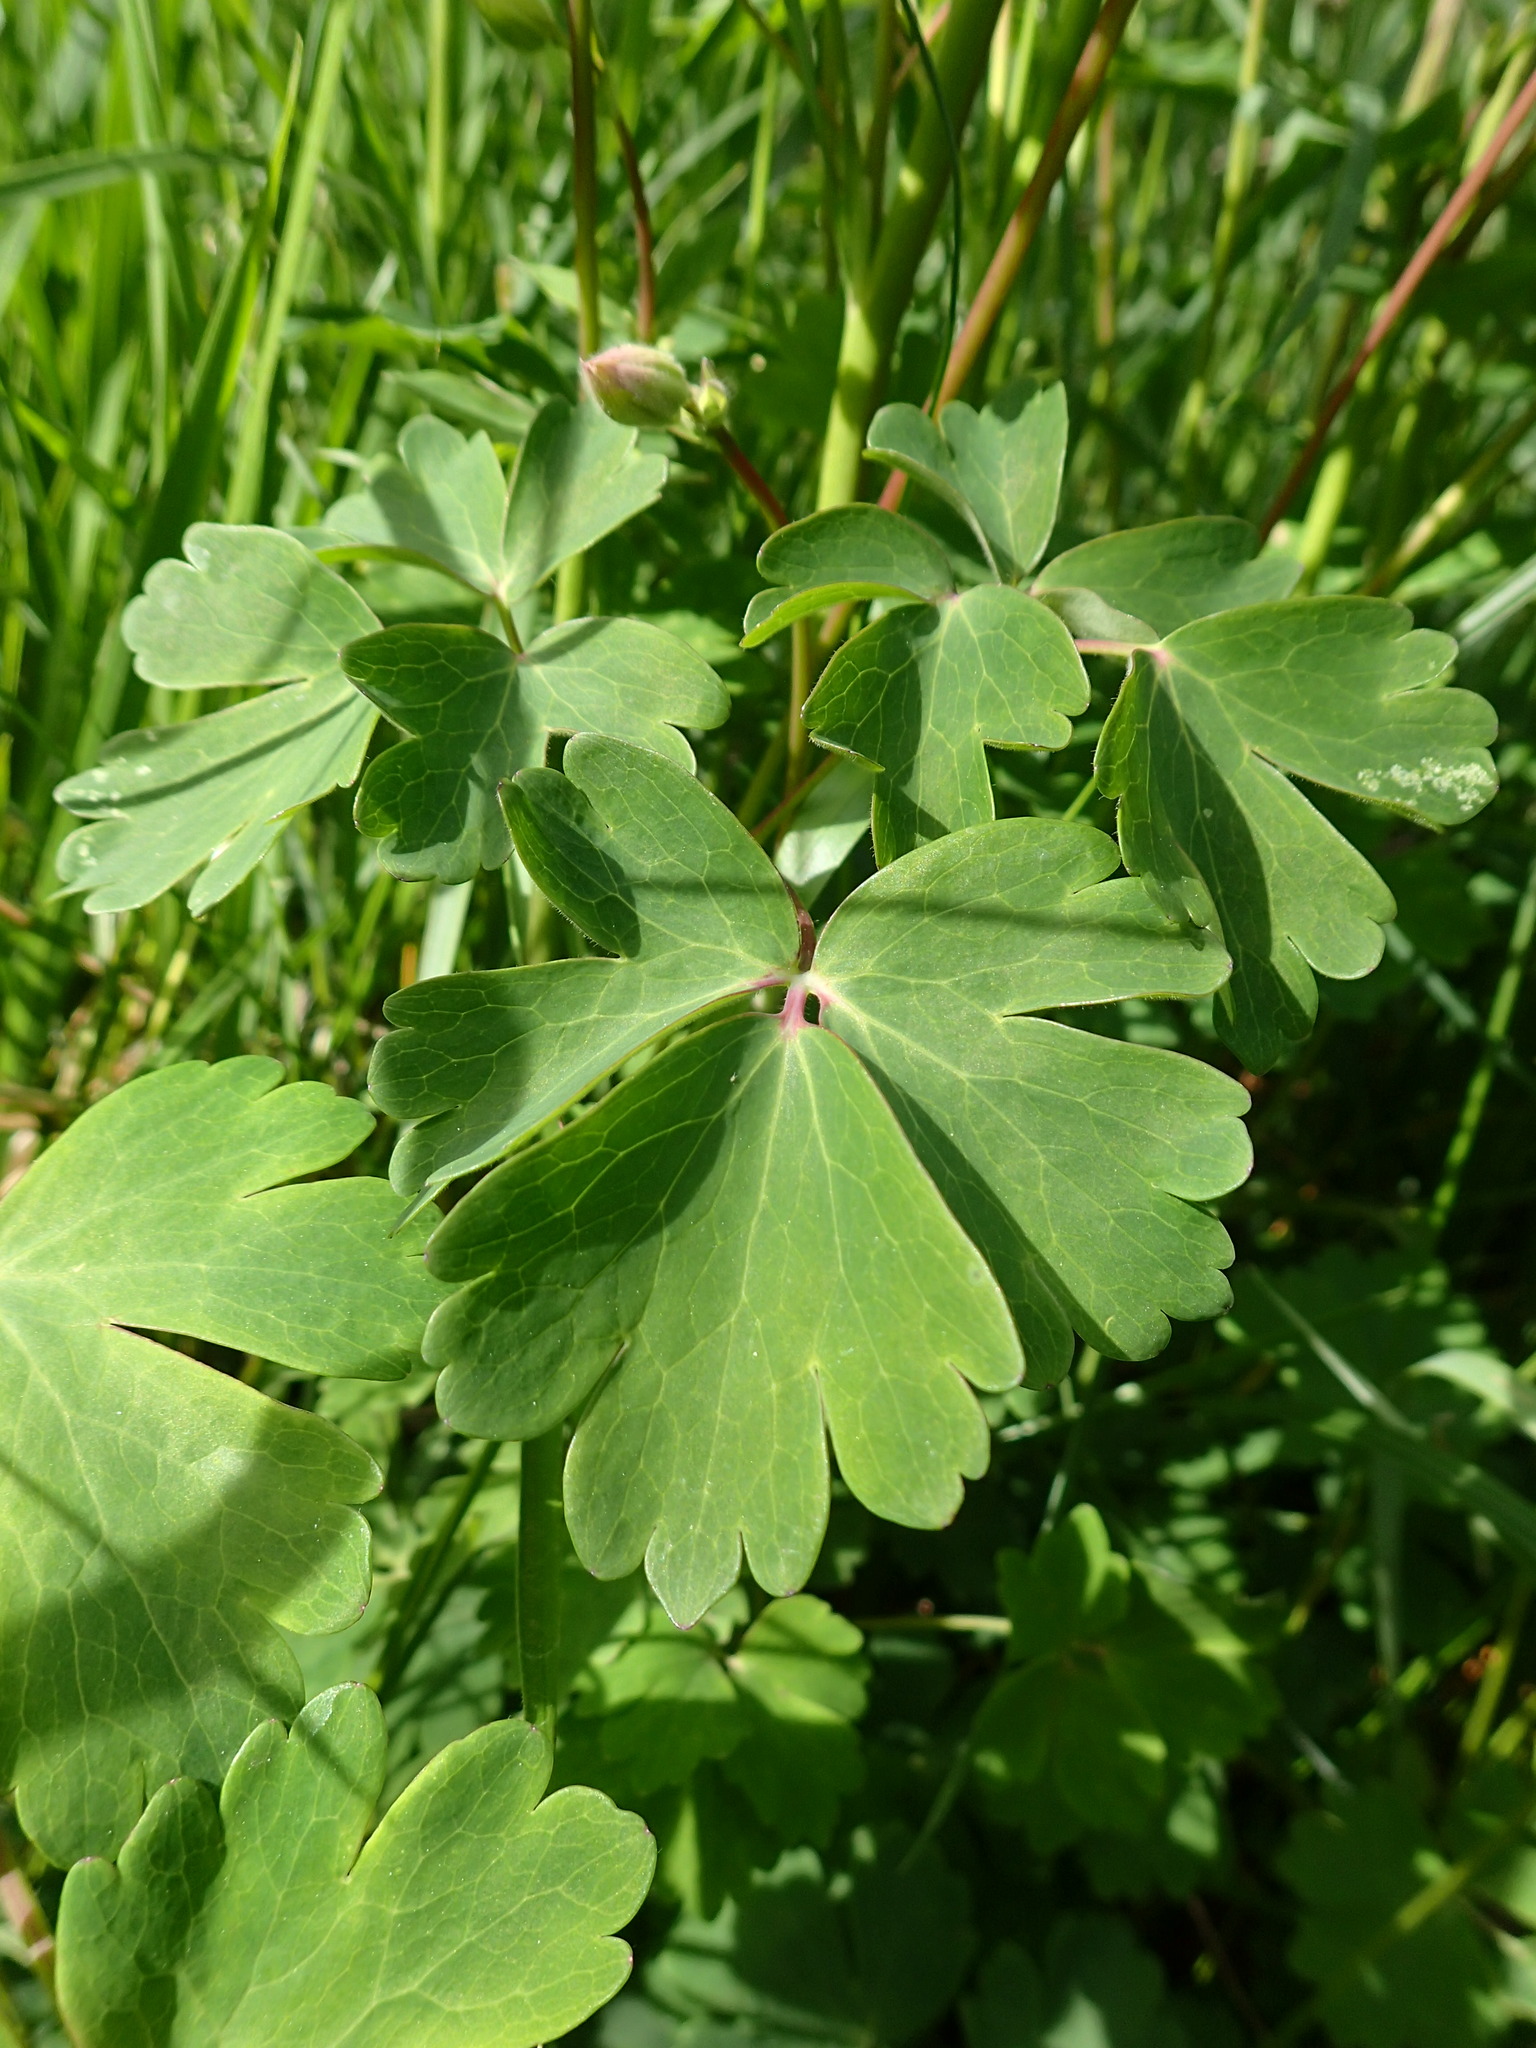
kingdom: Plantae
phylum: Tracheophyta
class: Magnoliopsida
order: Ranunculales
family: Ranunculaceae
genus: Aquilegia
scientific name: Aquilegia vulgaris
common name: Columbine
